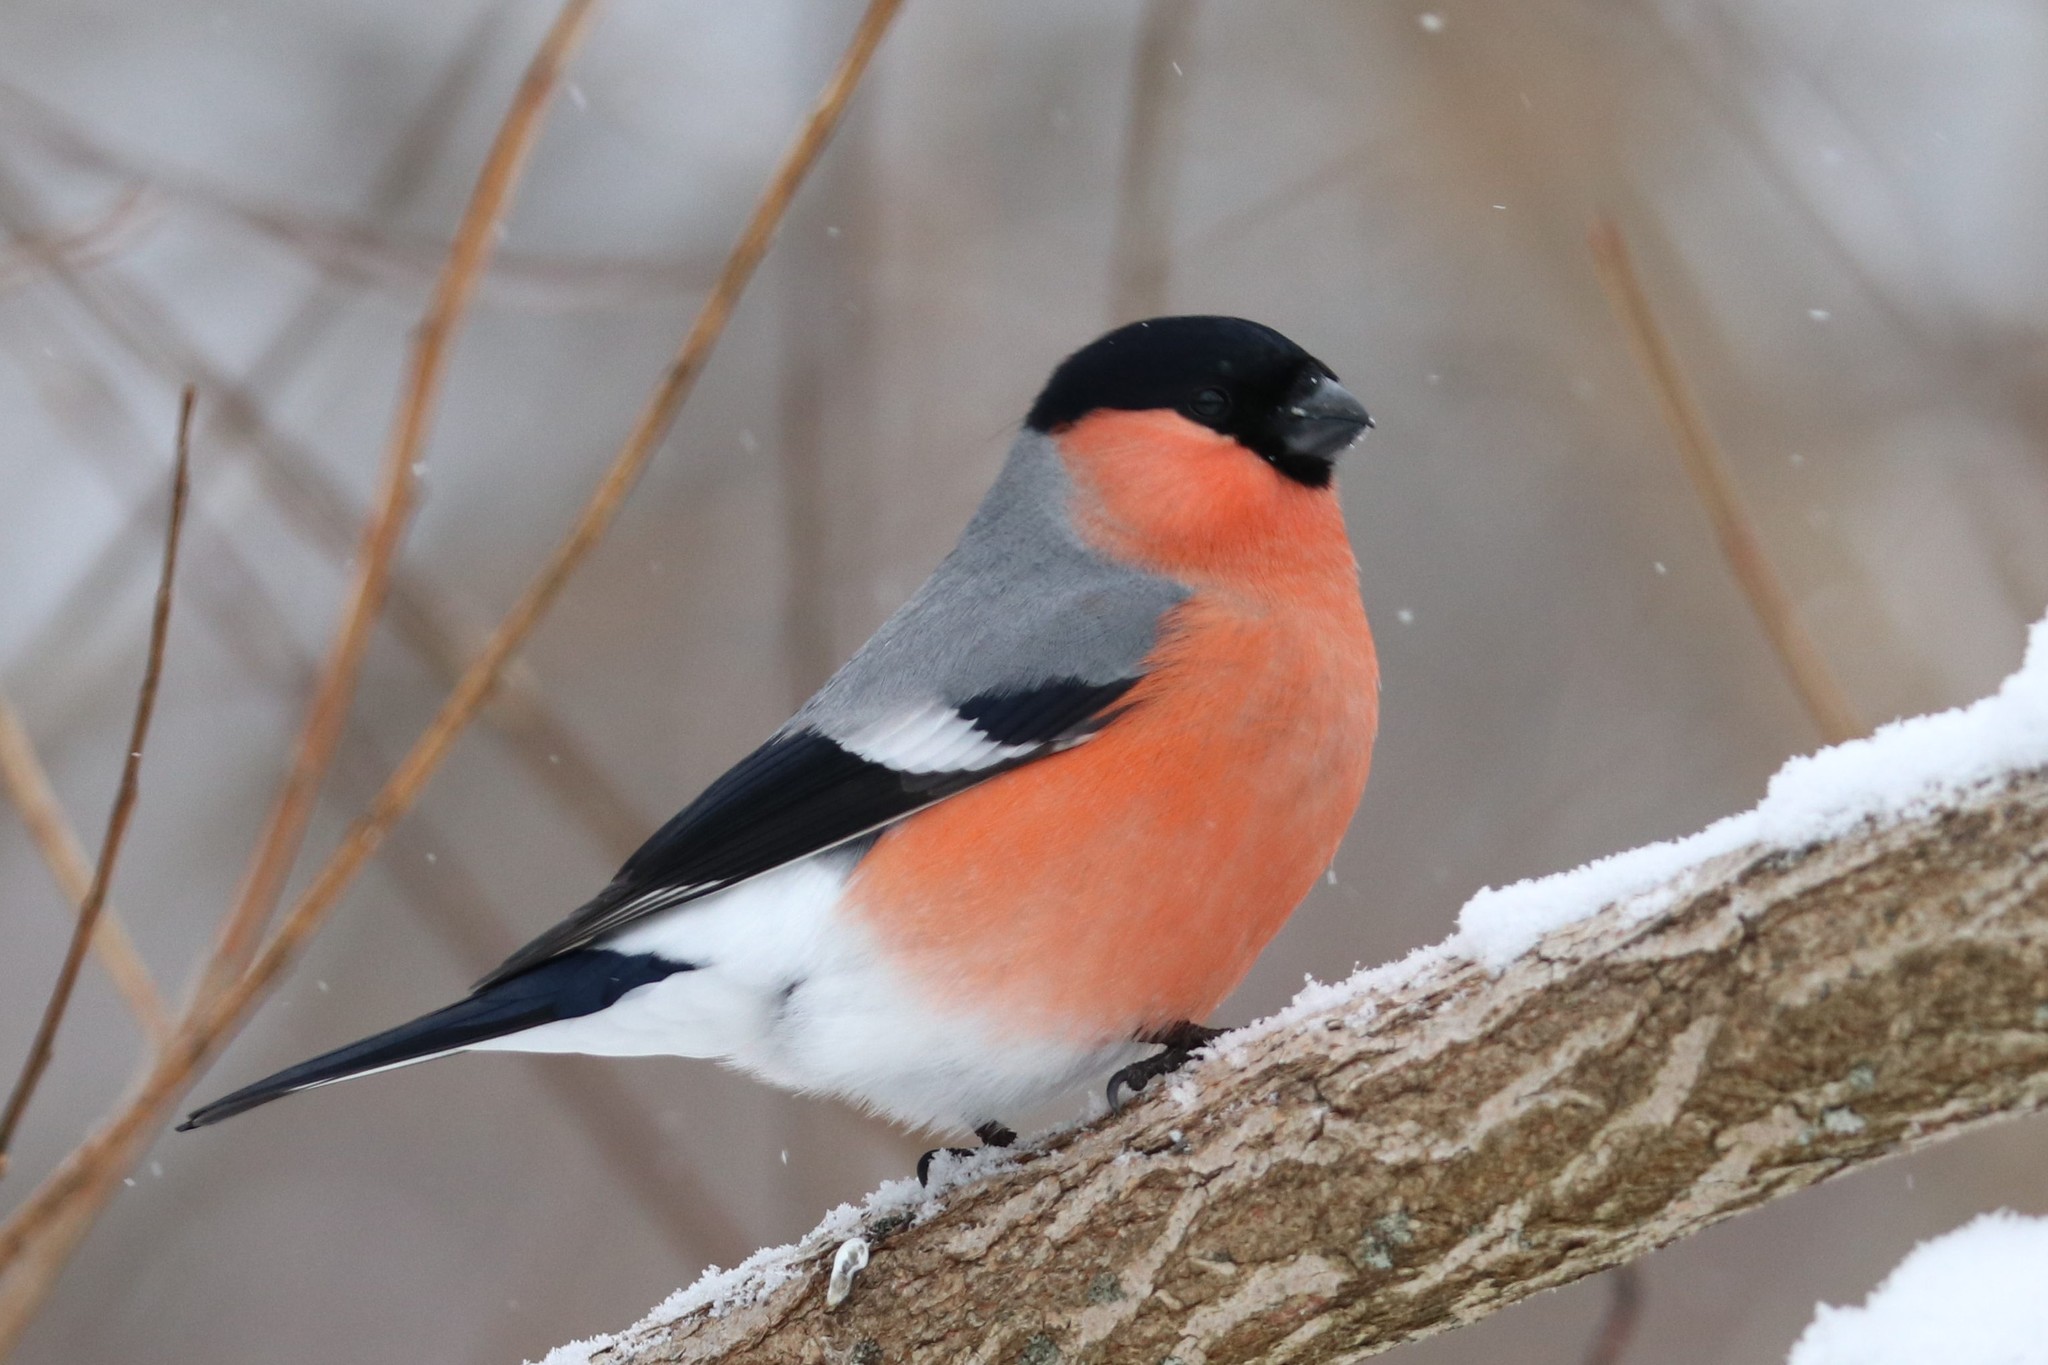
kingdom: Animalia
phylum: Chordata
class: Aves
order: Passeriformes
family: Fringillidae
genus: Pyrrhula
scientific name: Pyrrhula pyrrhula
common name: Eurasian bullfinch
